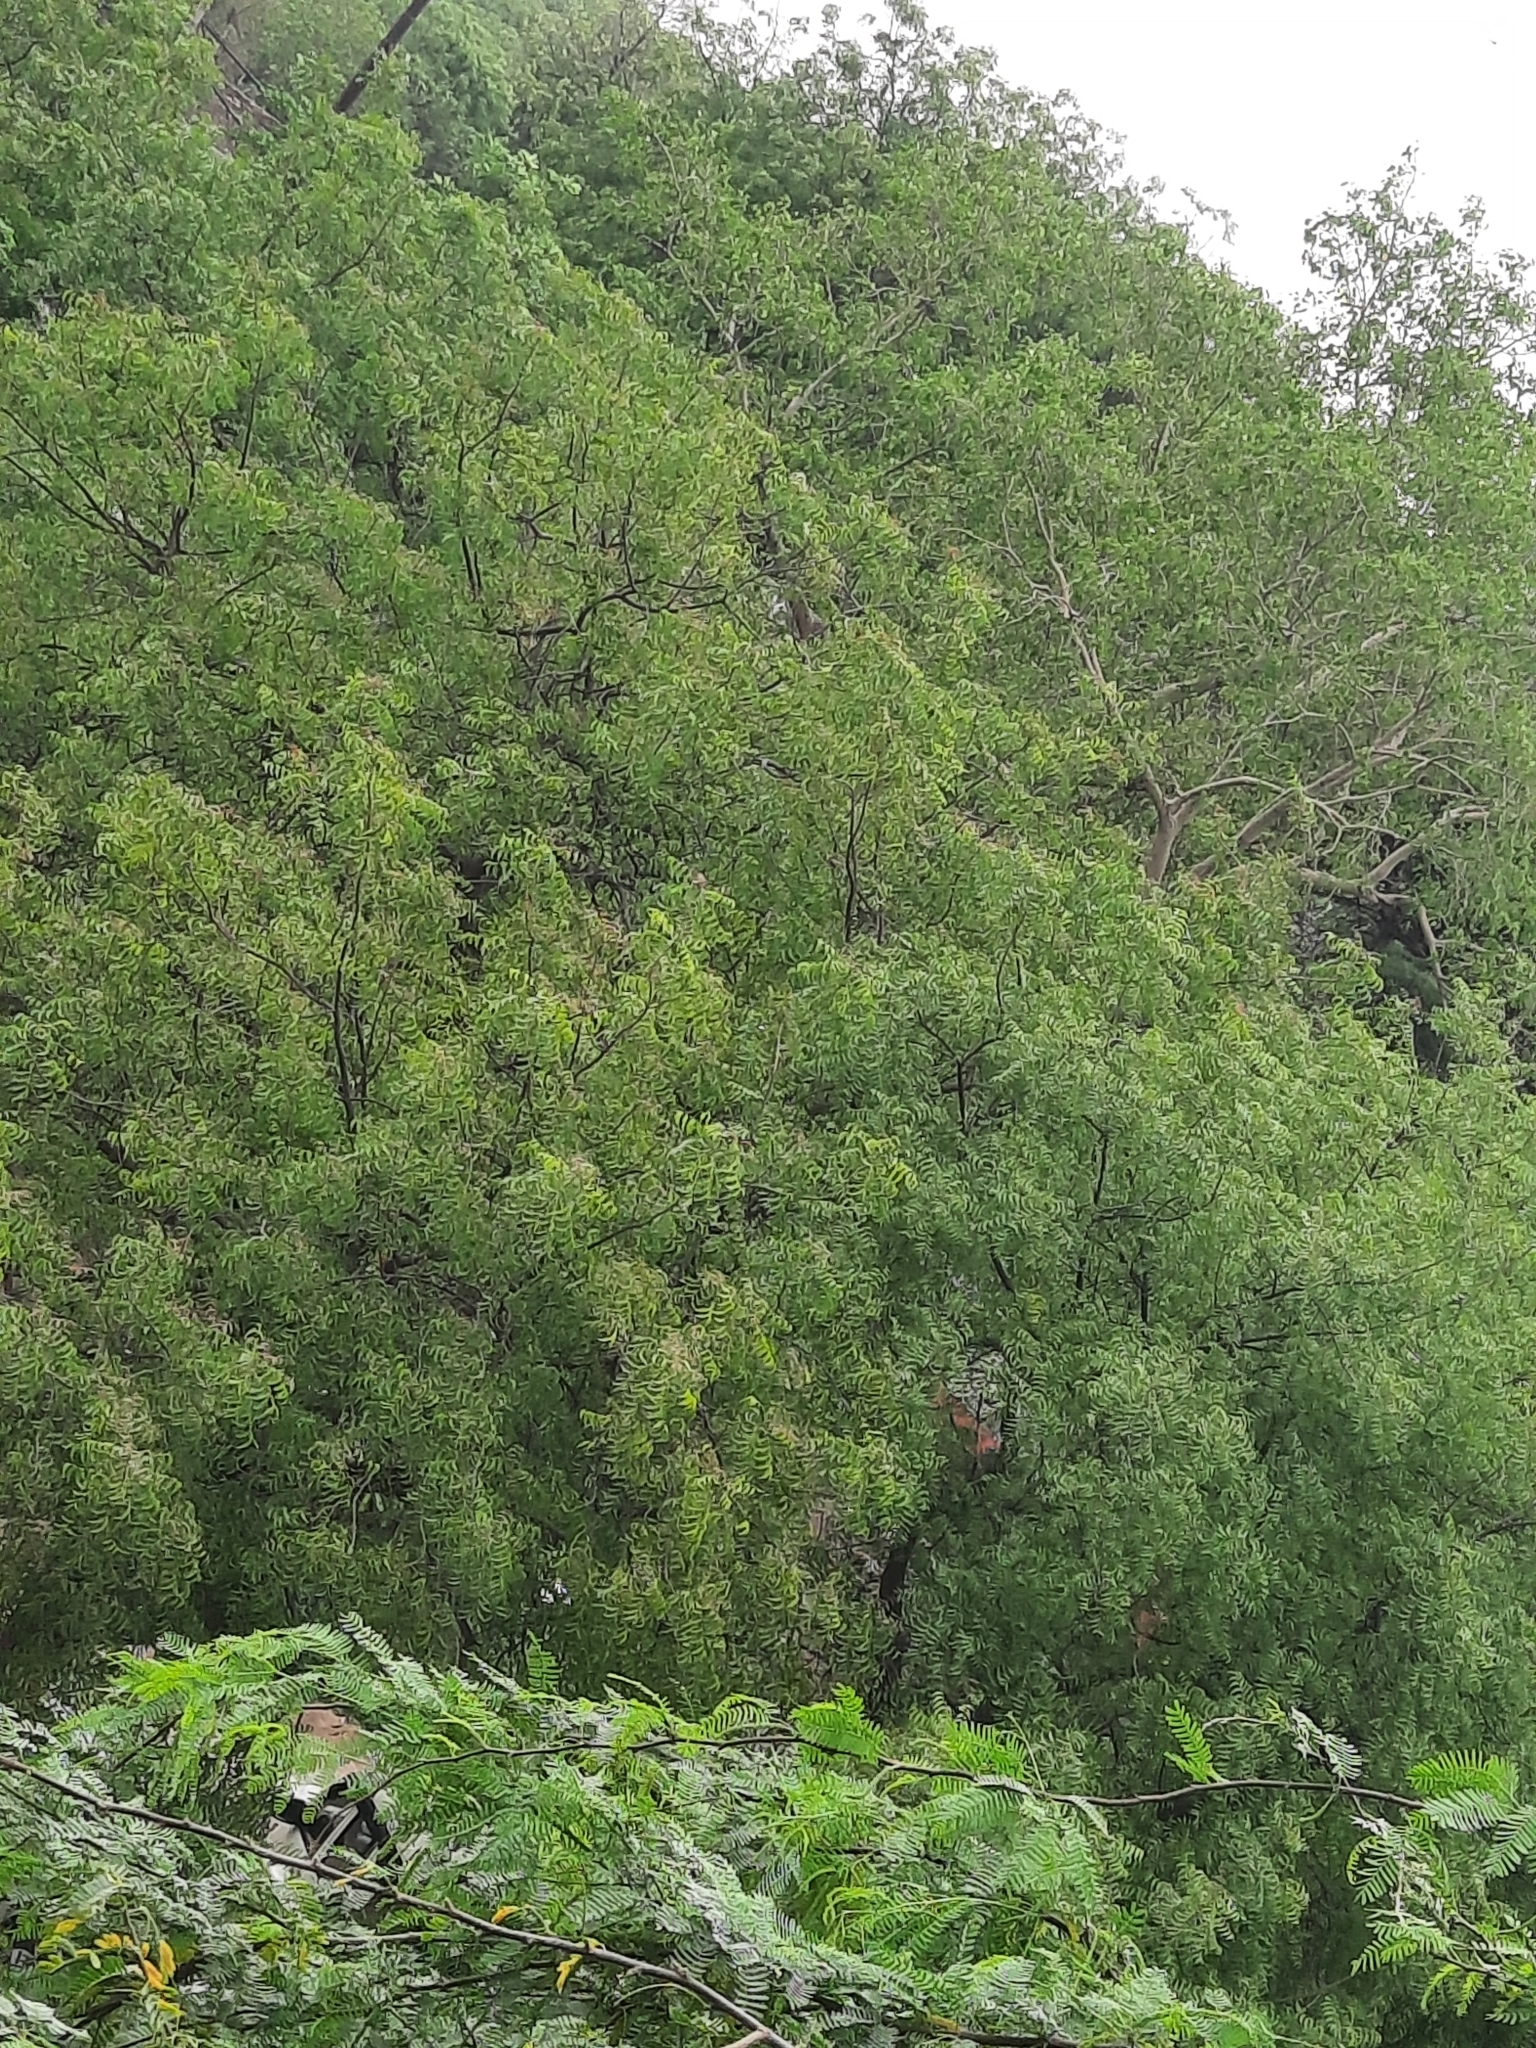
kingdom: Plantae
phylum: Tracheophyta
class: Magnoliopsida
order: Sapindales
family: Meliaceae
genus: Azadirachta
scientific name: Azadirachta indica
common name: Neem
